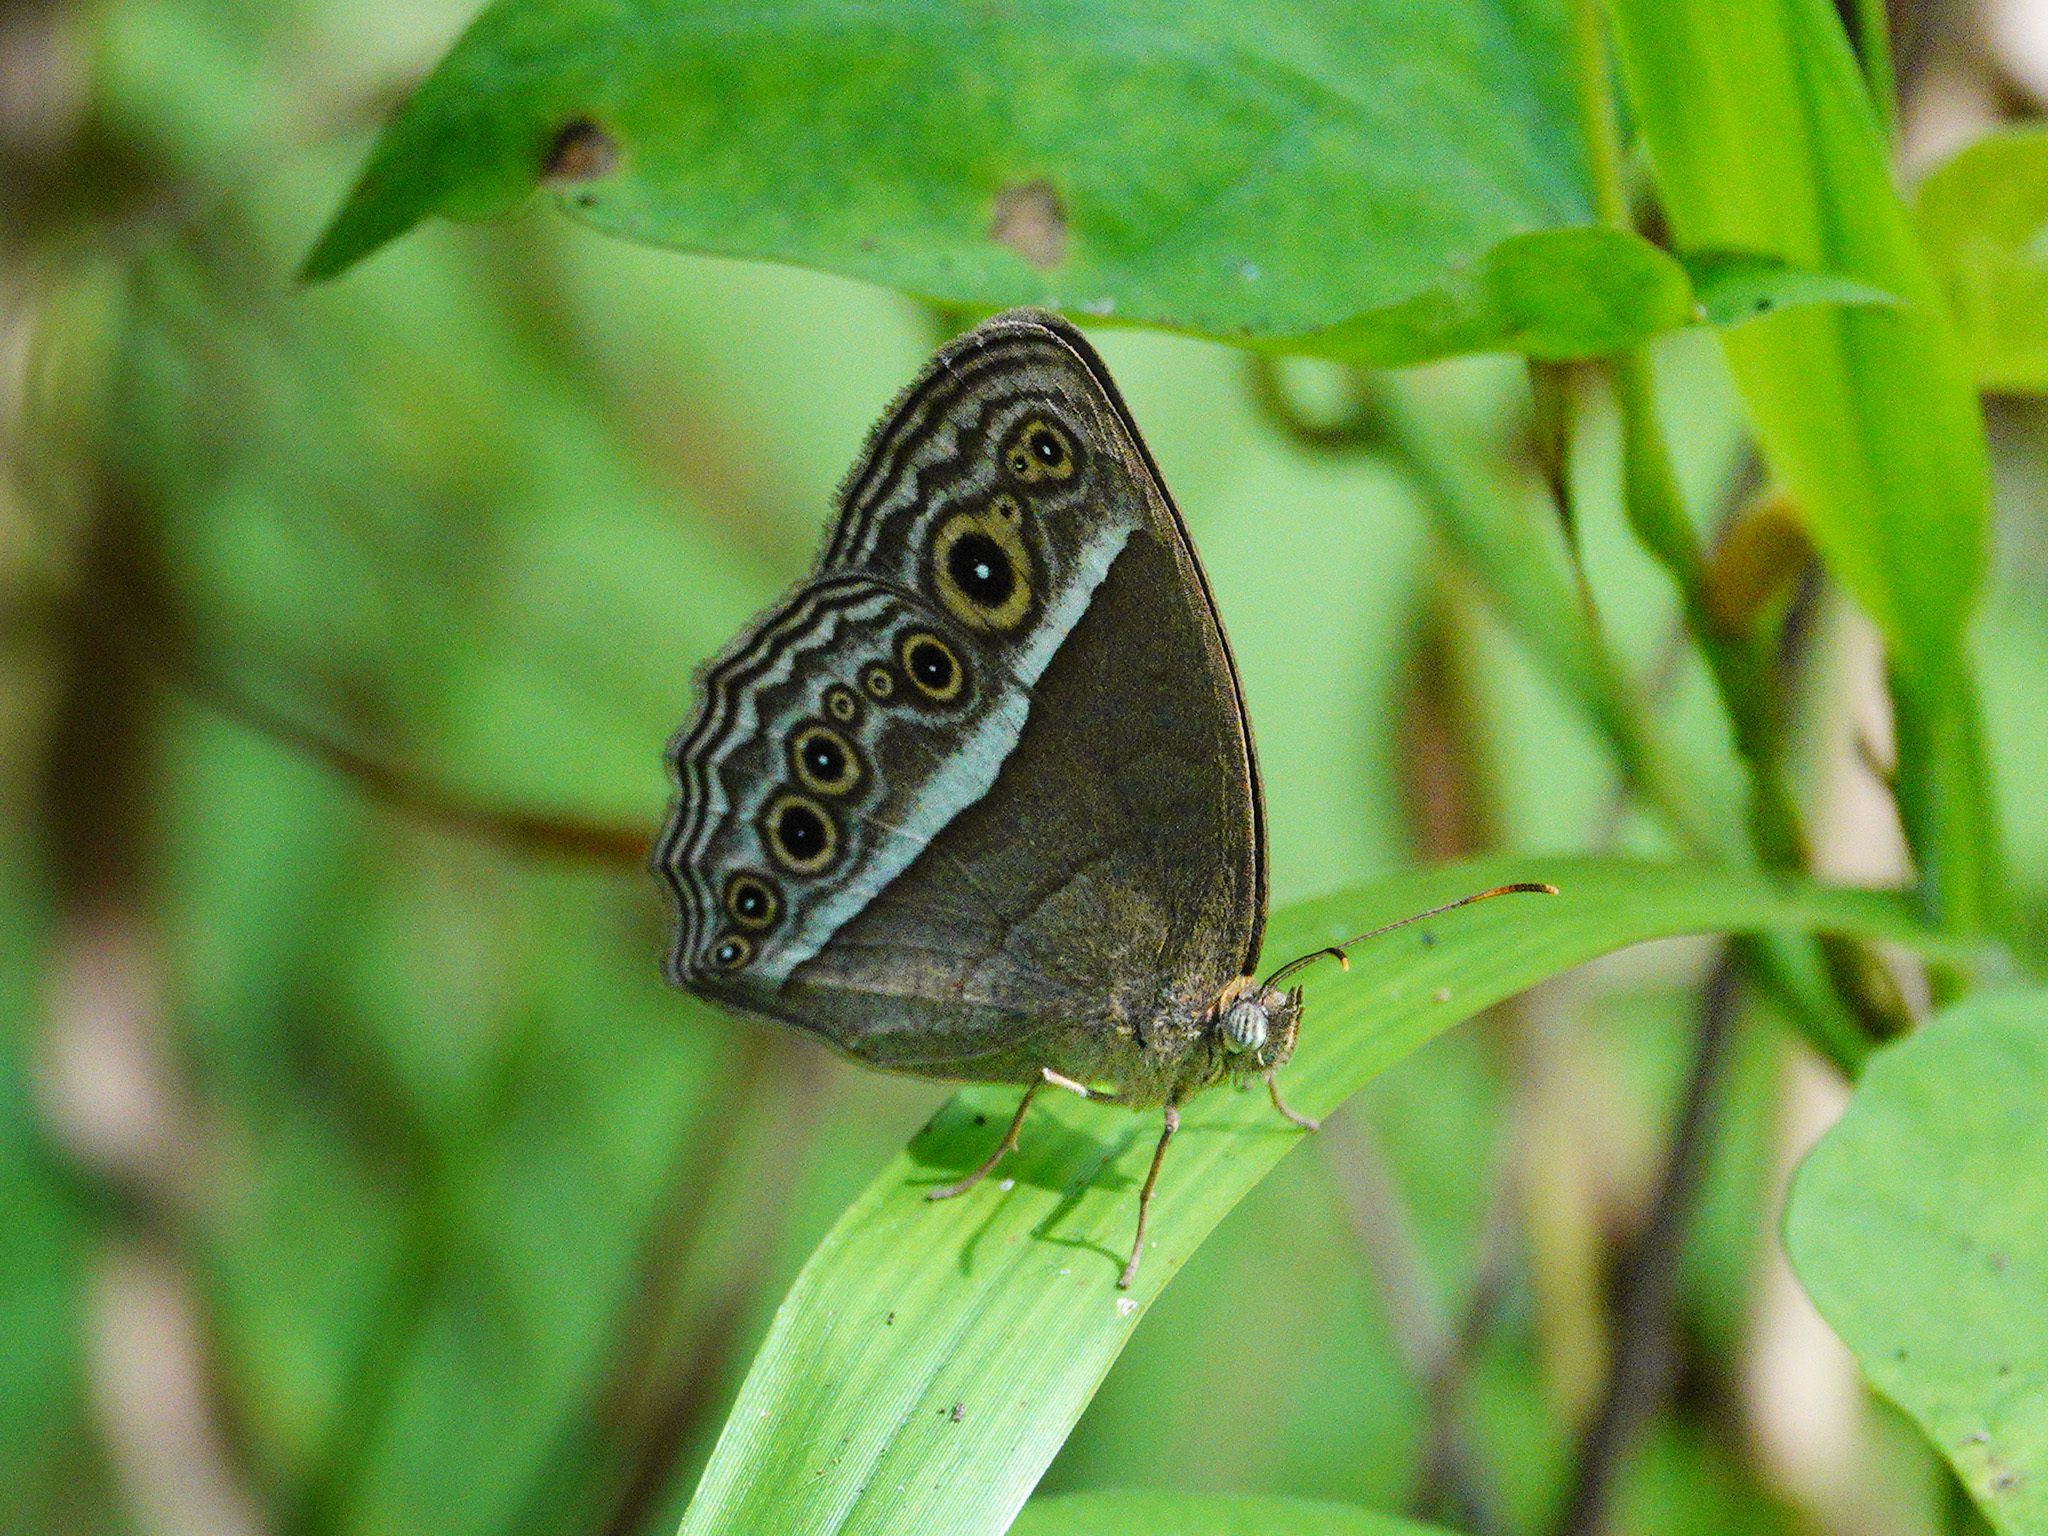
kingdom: Animalia
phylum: Arthropoda
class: Insecta
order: Lepidoptera
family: Nymphalidae
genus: Mycalesis
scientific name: Mycalesis visala
